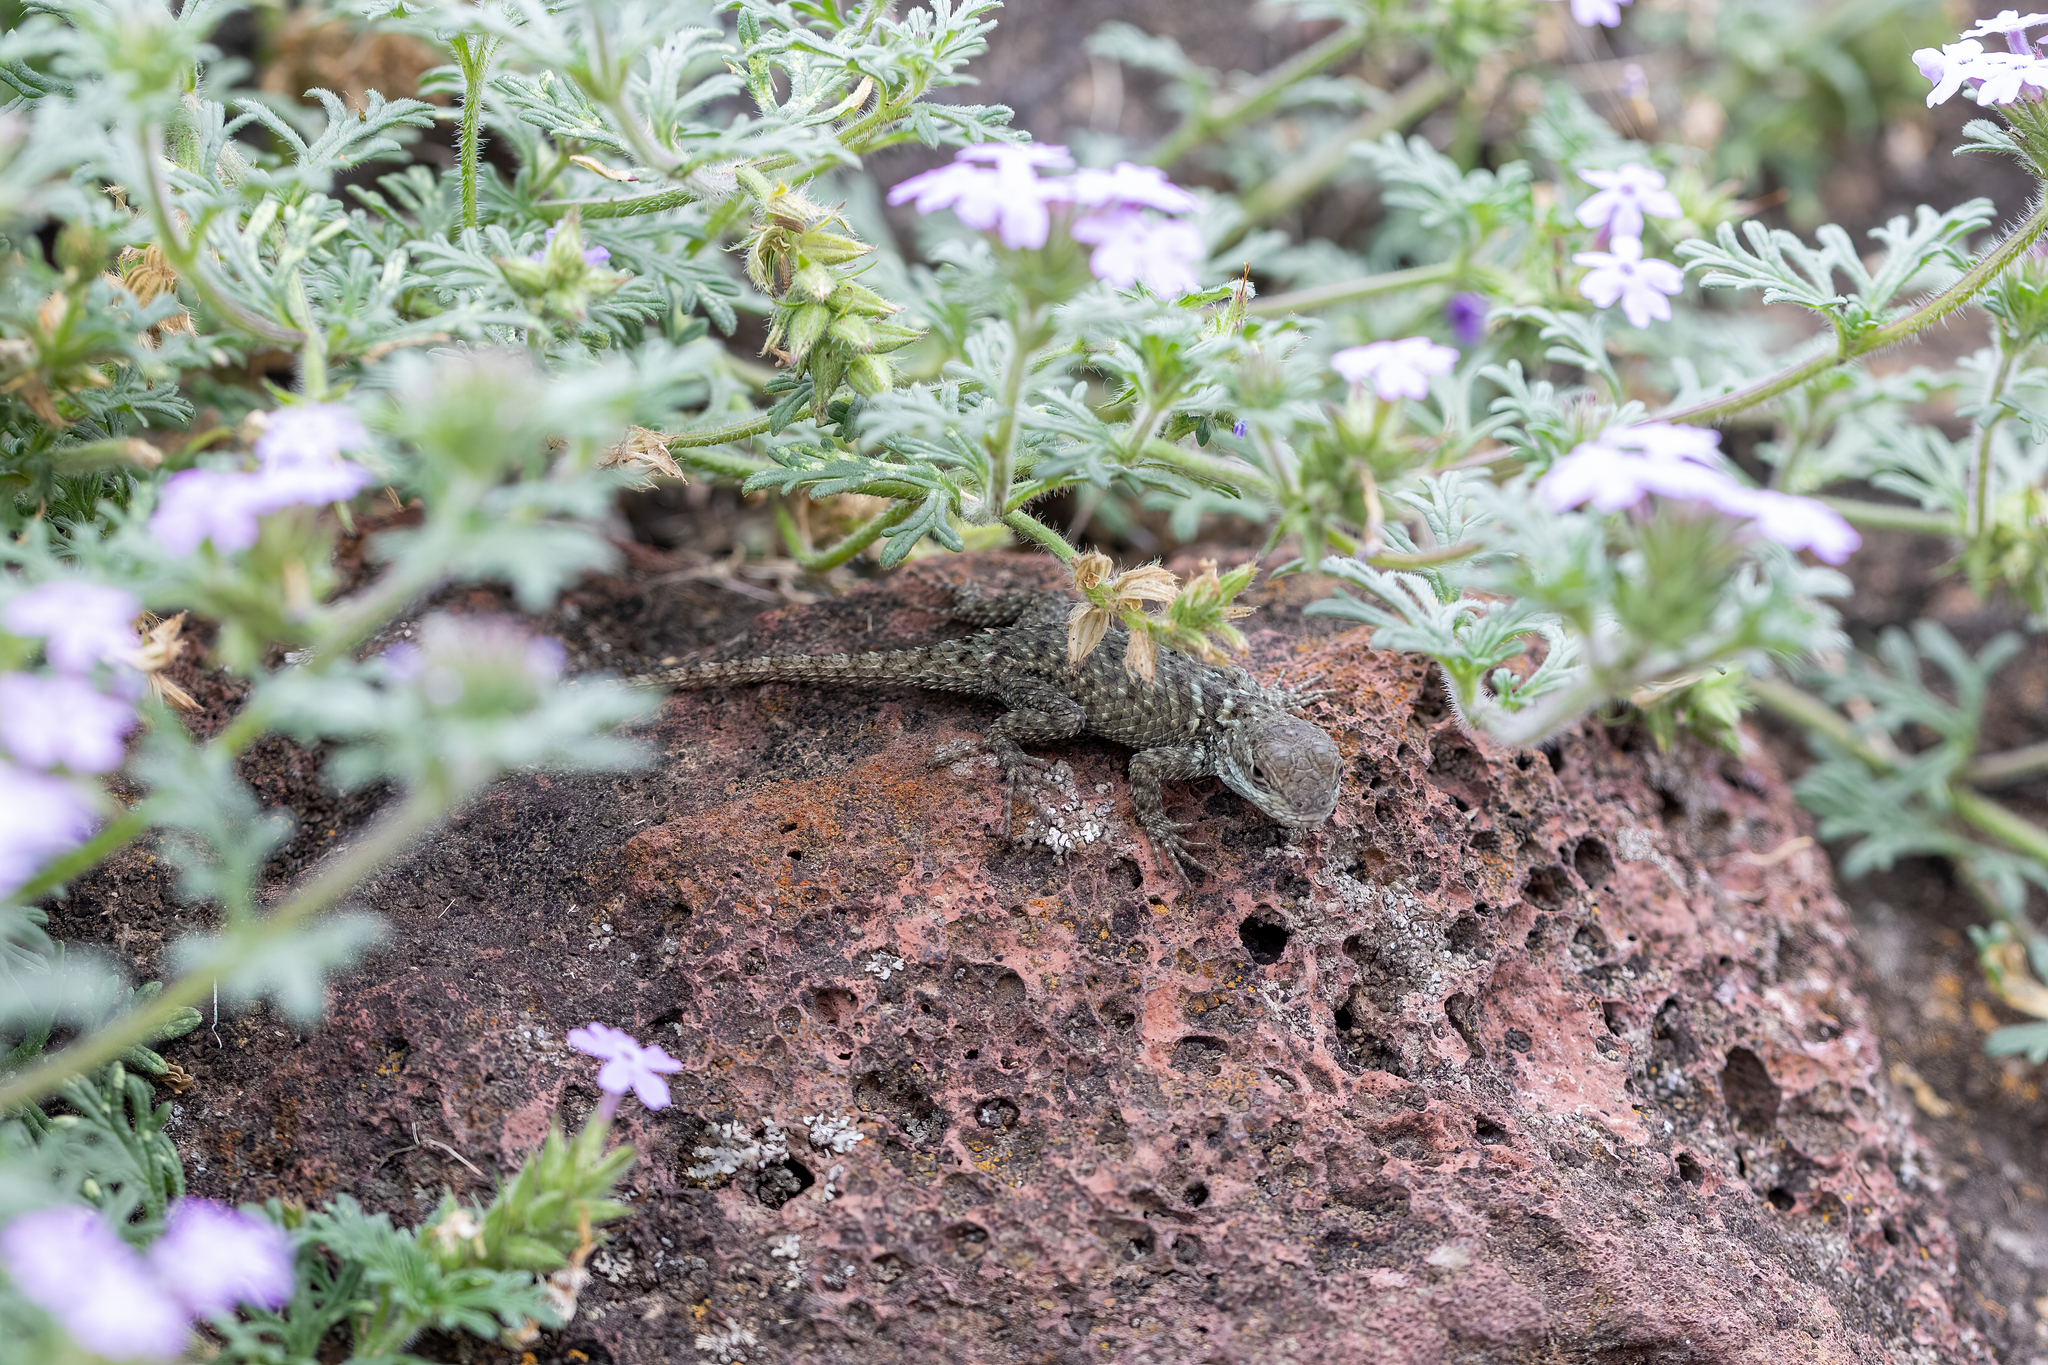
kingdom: Animalia
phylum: Chordata
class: Squamata
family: Phrynosomatidae
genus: Sceloporus
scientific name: Sceloporus torquatus
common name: Central plateau torquate lizard [melanogaster]
